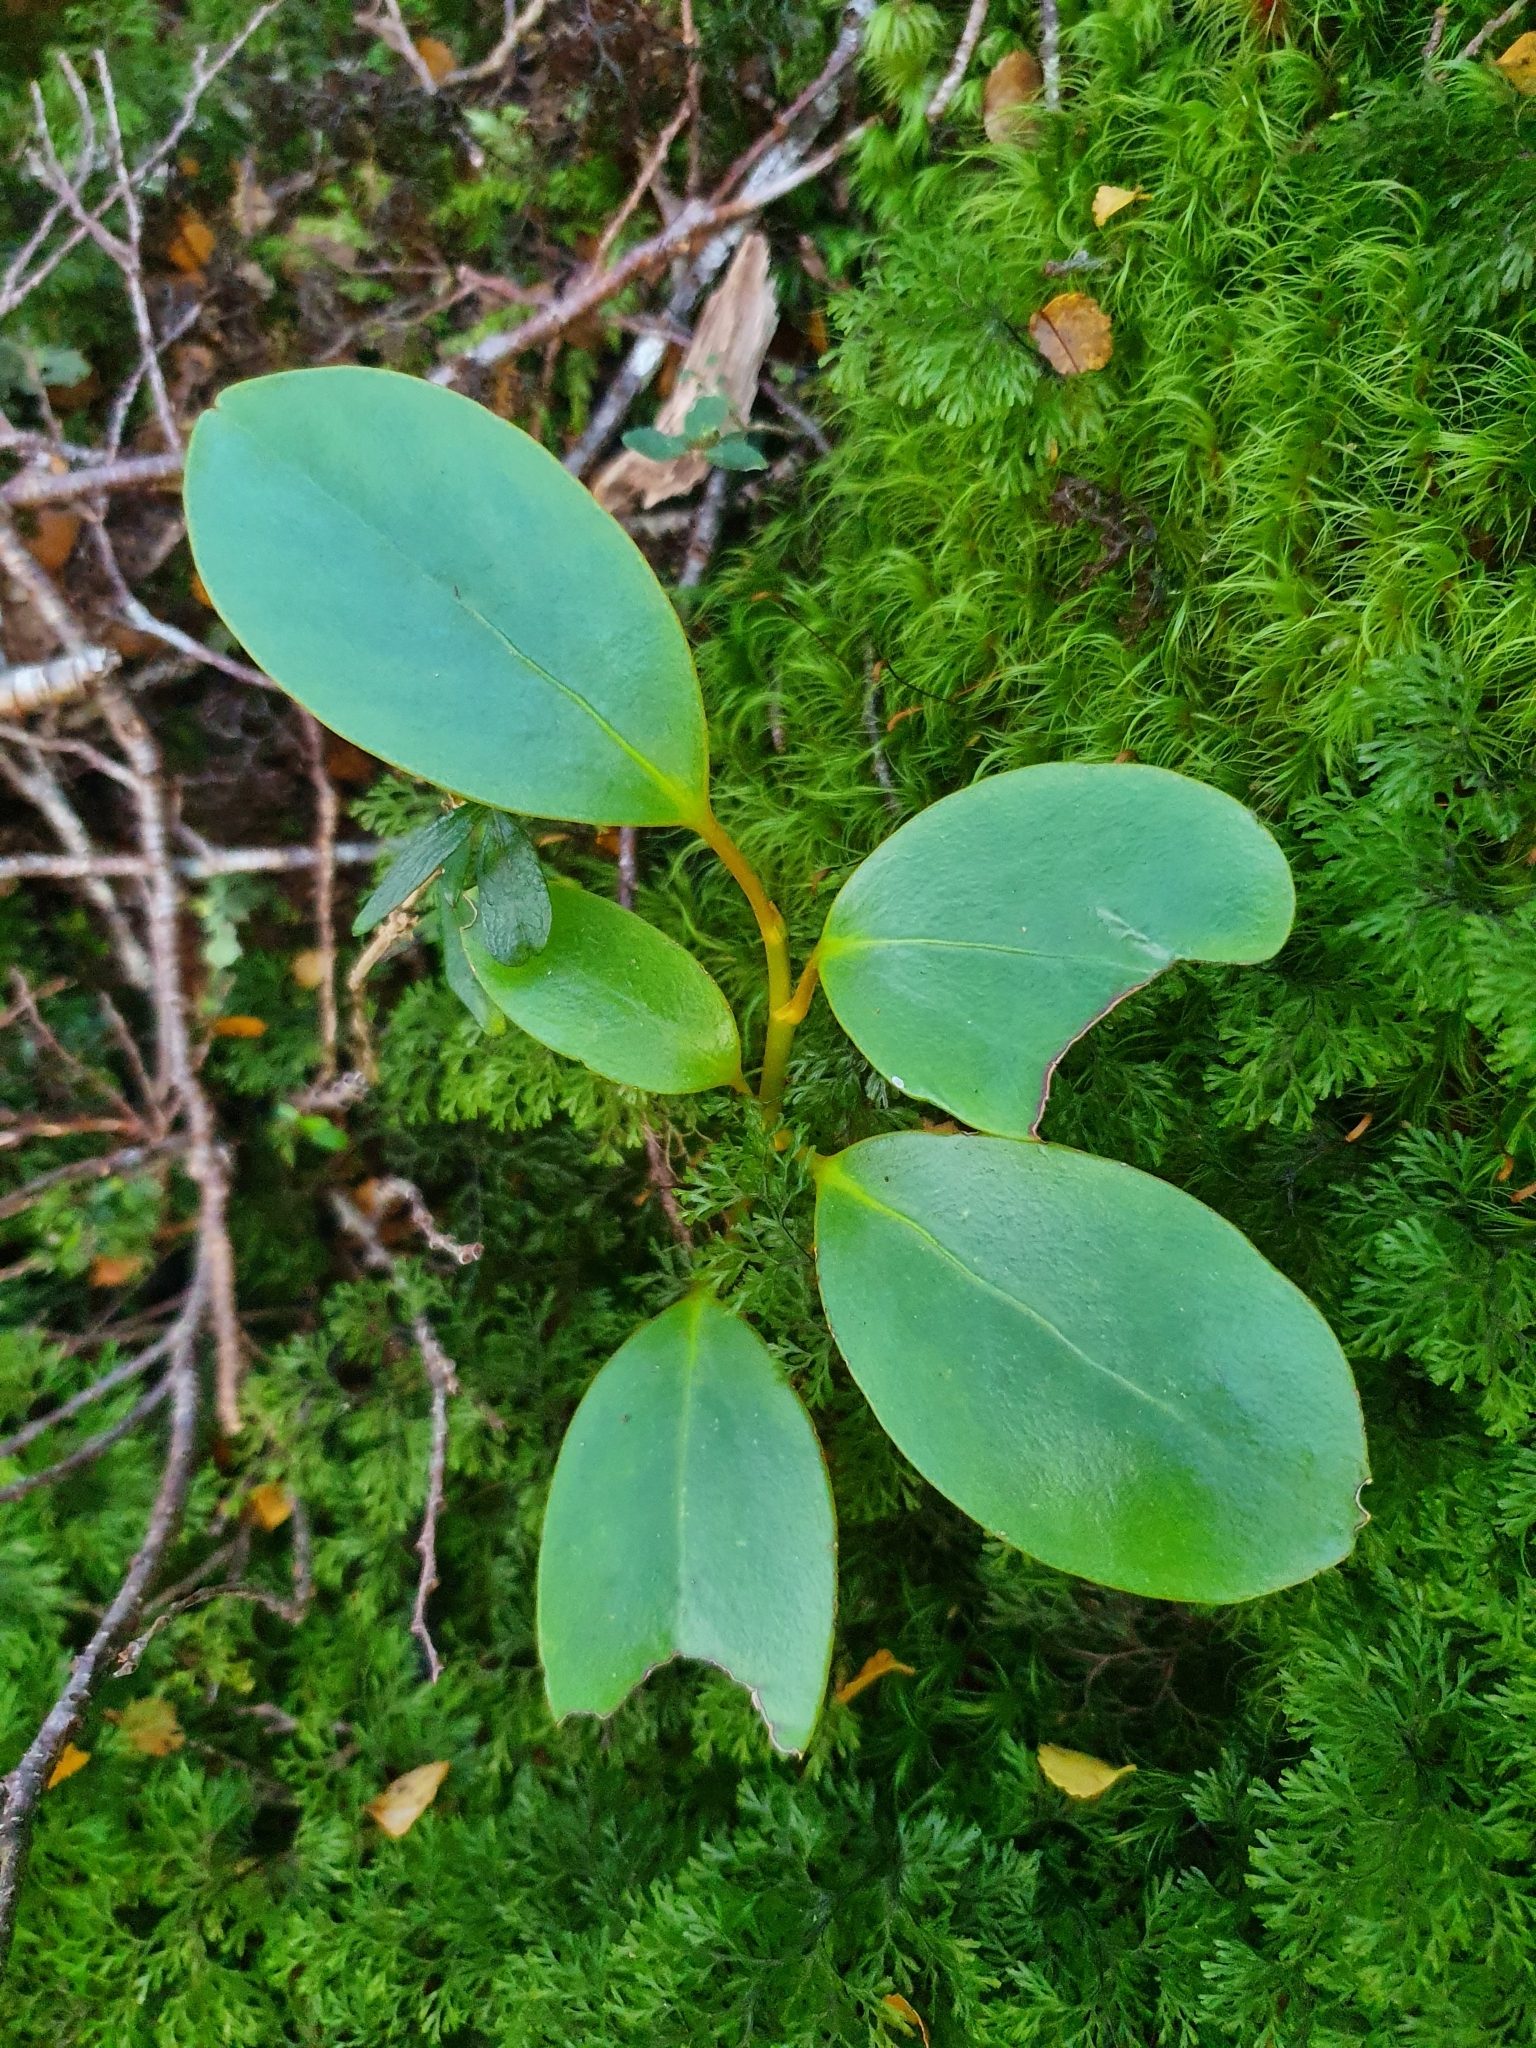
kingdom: Plantae
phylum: Tracheophyta
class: Magnoliopsida
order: Apiales
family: Griseliniaceae
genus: Griselinia
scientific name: Griselinia littoralis
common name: New zealand broadleaf
